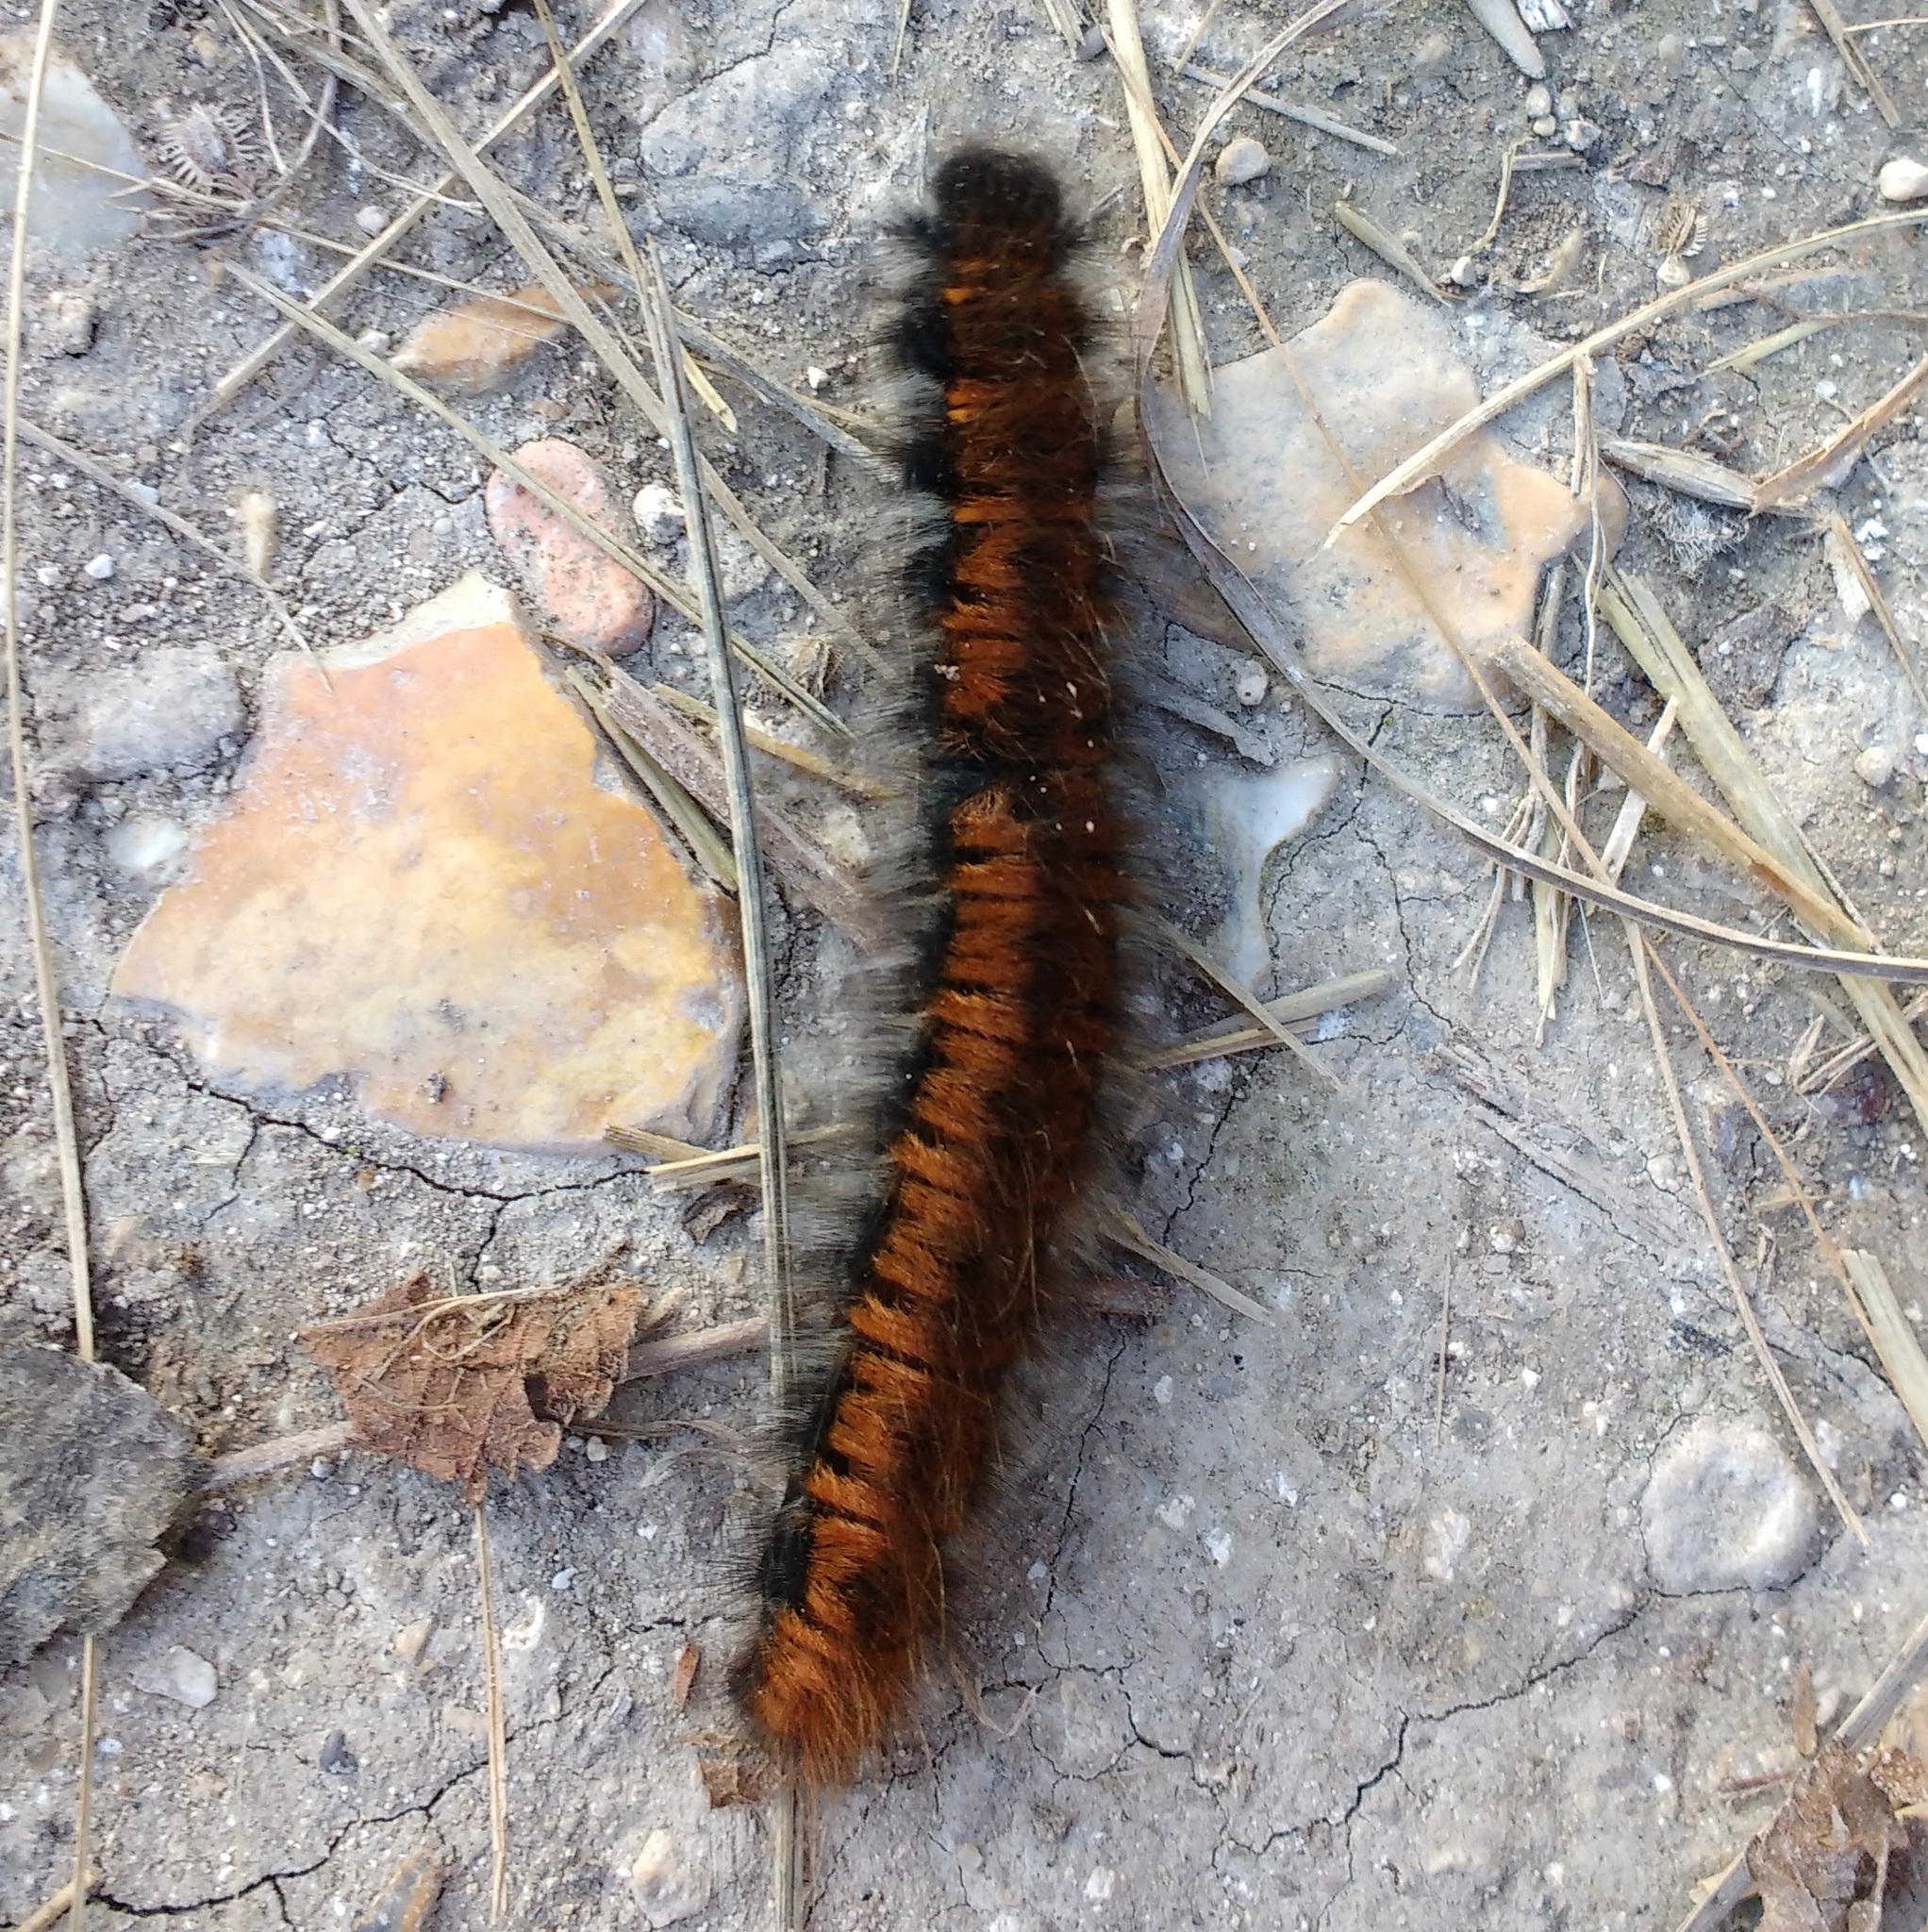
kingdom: Animalia
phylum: Arthropoda
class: Insecta
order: Lepidoptera
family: Lasiocampidae
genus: Macrothylacia
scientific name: Macrothylacia rubi
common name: Fox moth
